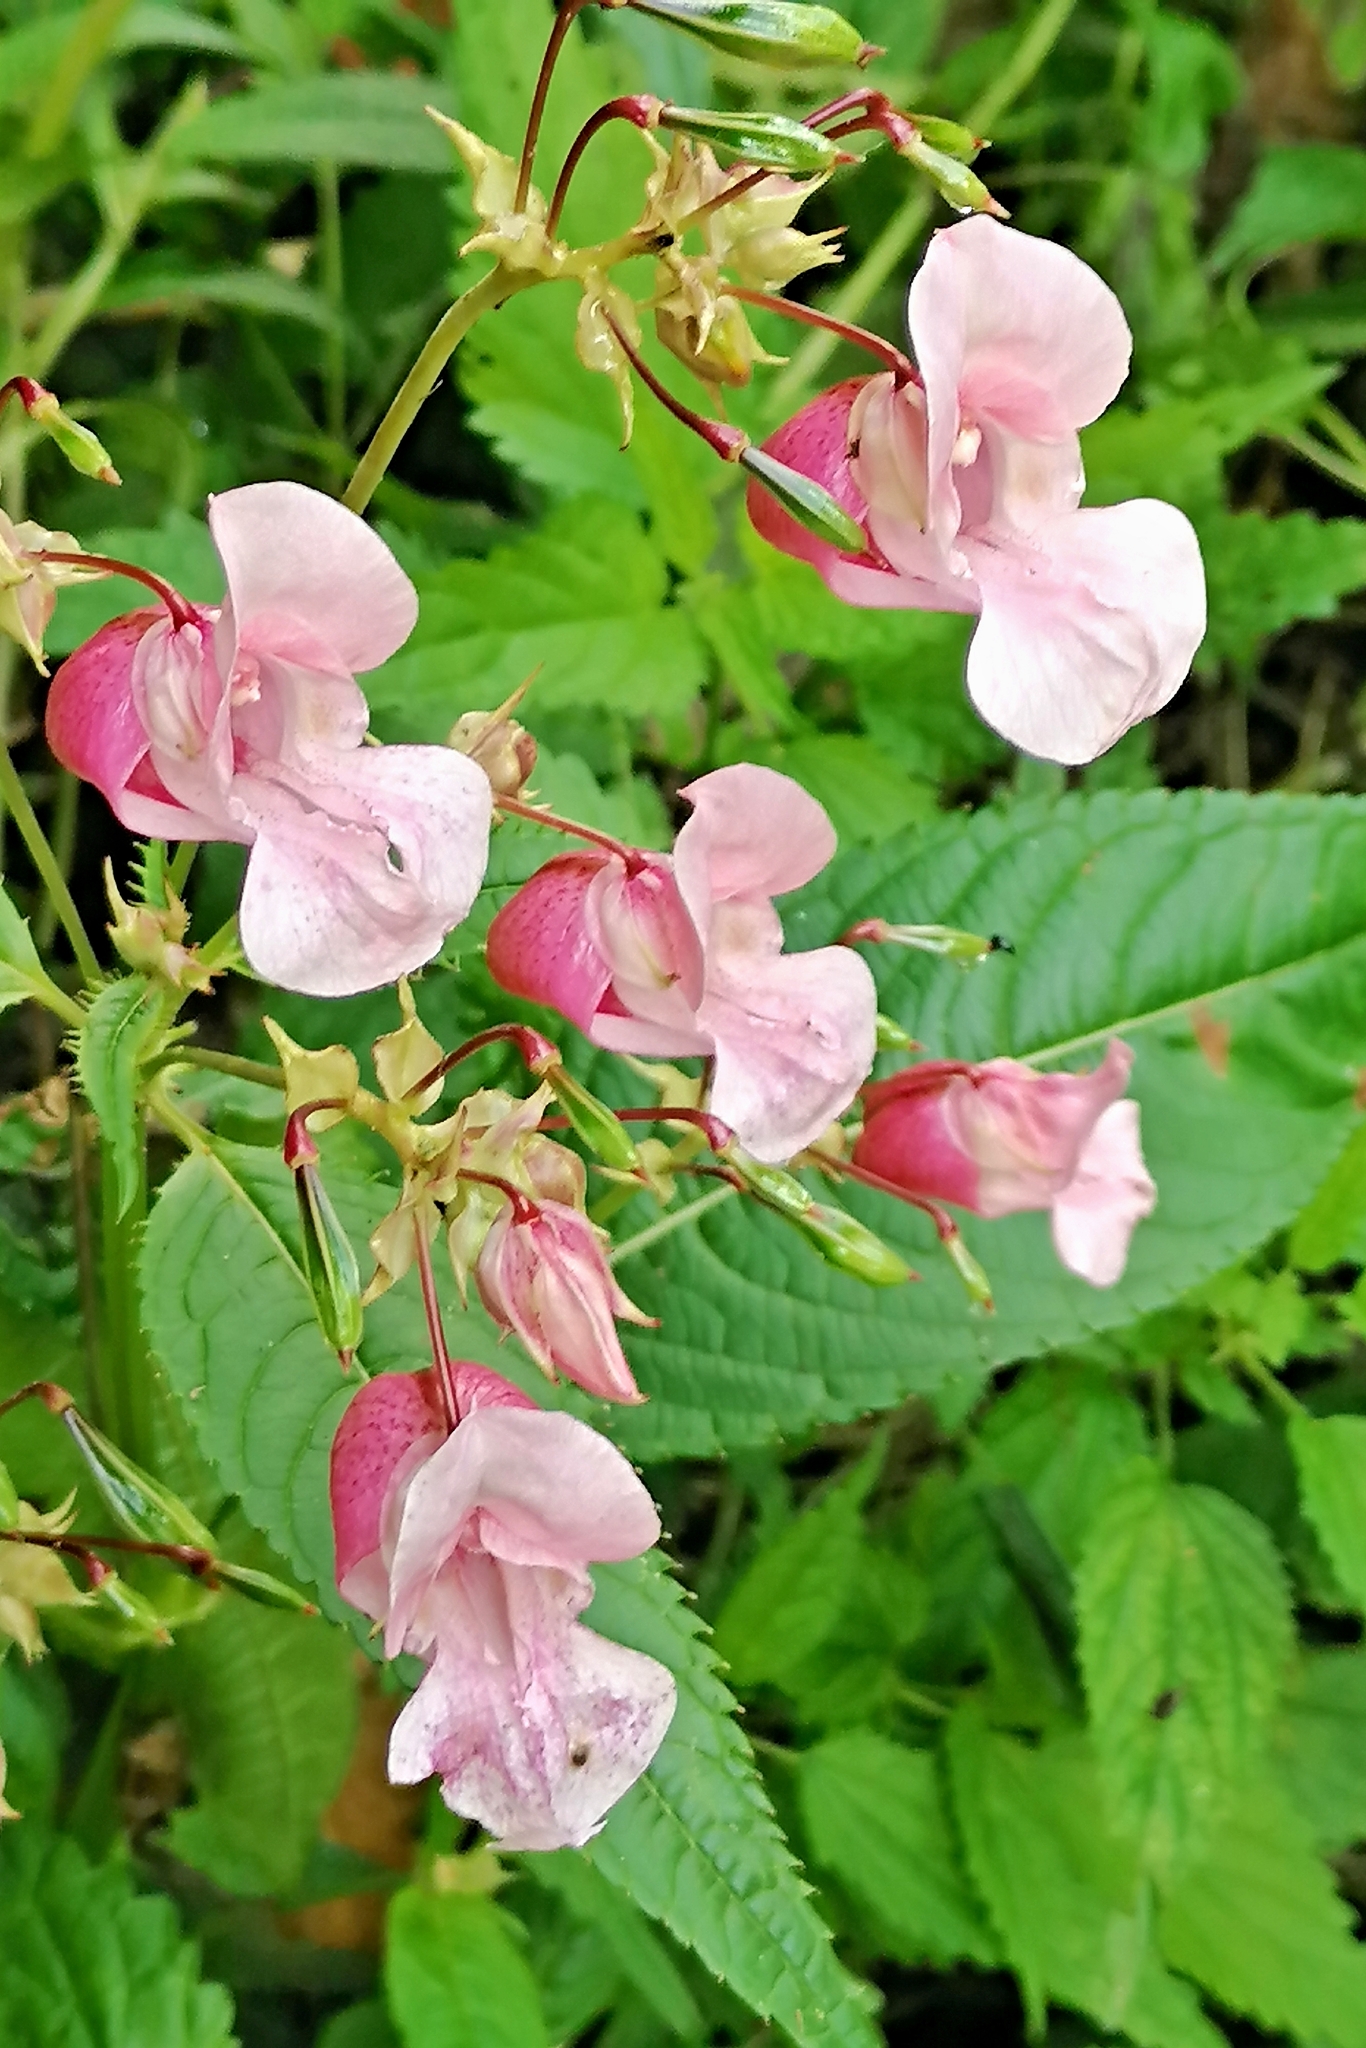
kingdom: Plantae
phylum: Tracheophyta
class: Magnoliopsida
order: Ericales
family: Balsaminaceae
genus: Impatiens
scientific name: Impatiens glandulifera
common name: Himalayan balsam
